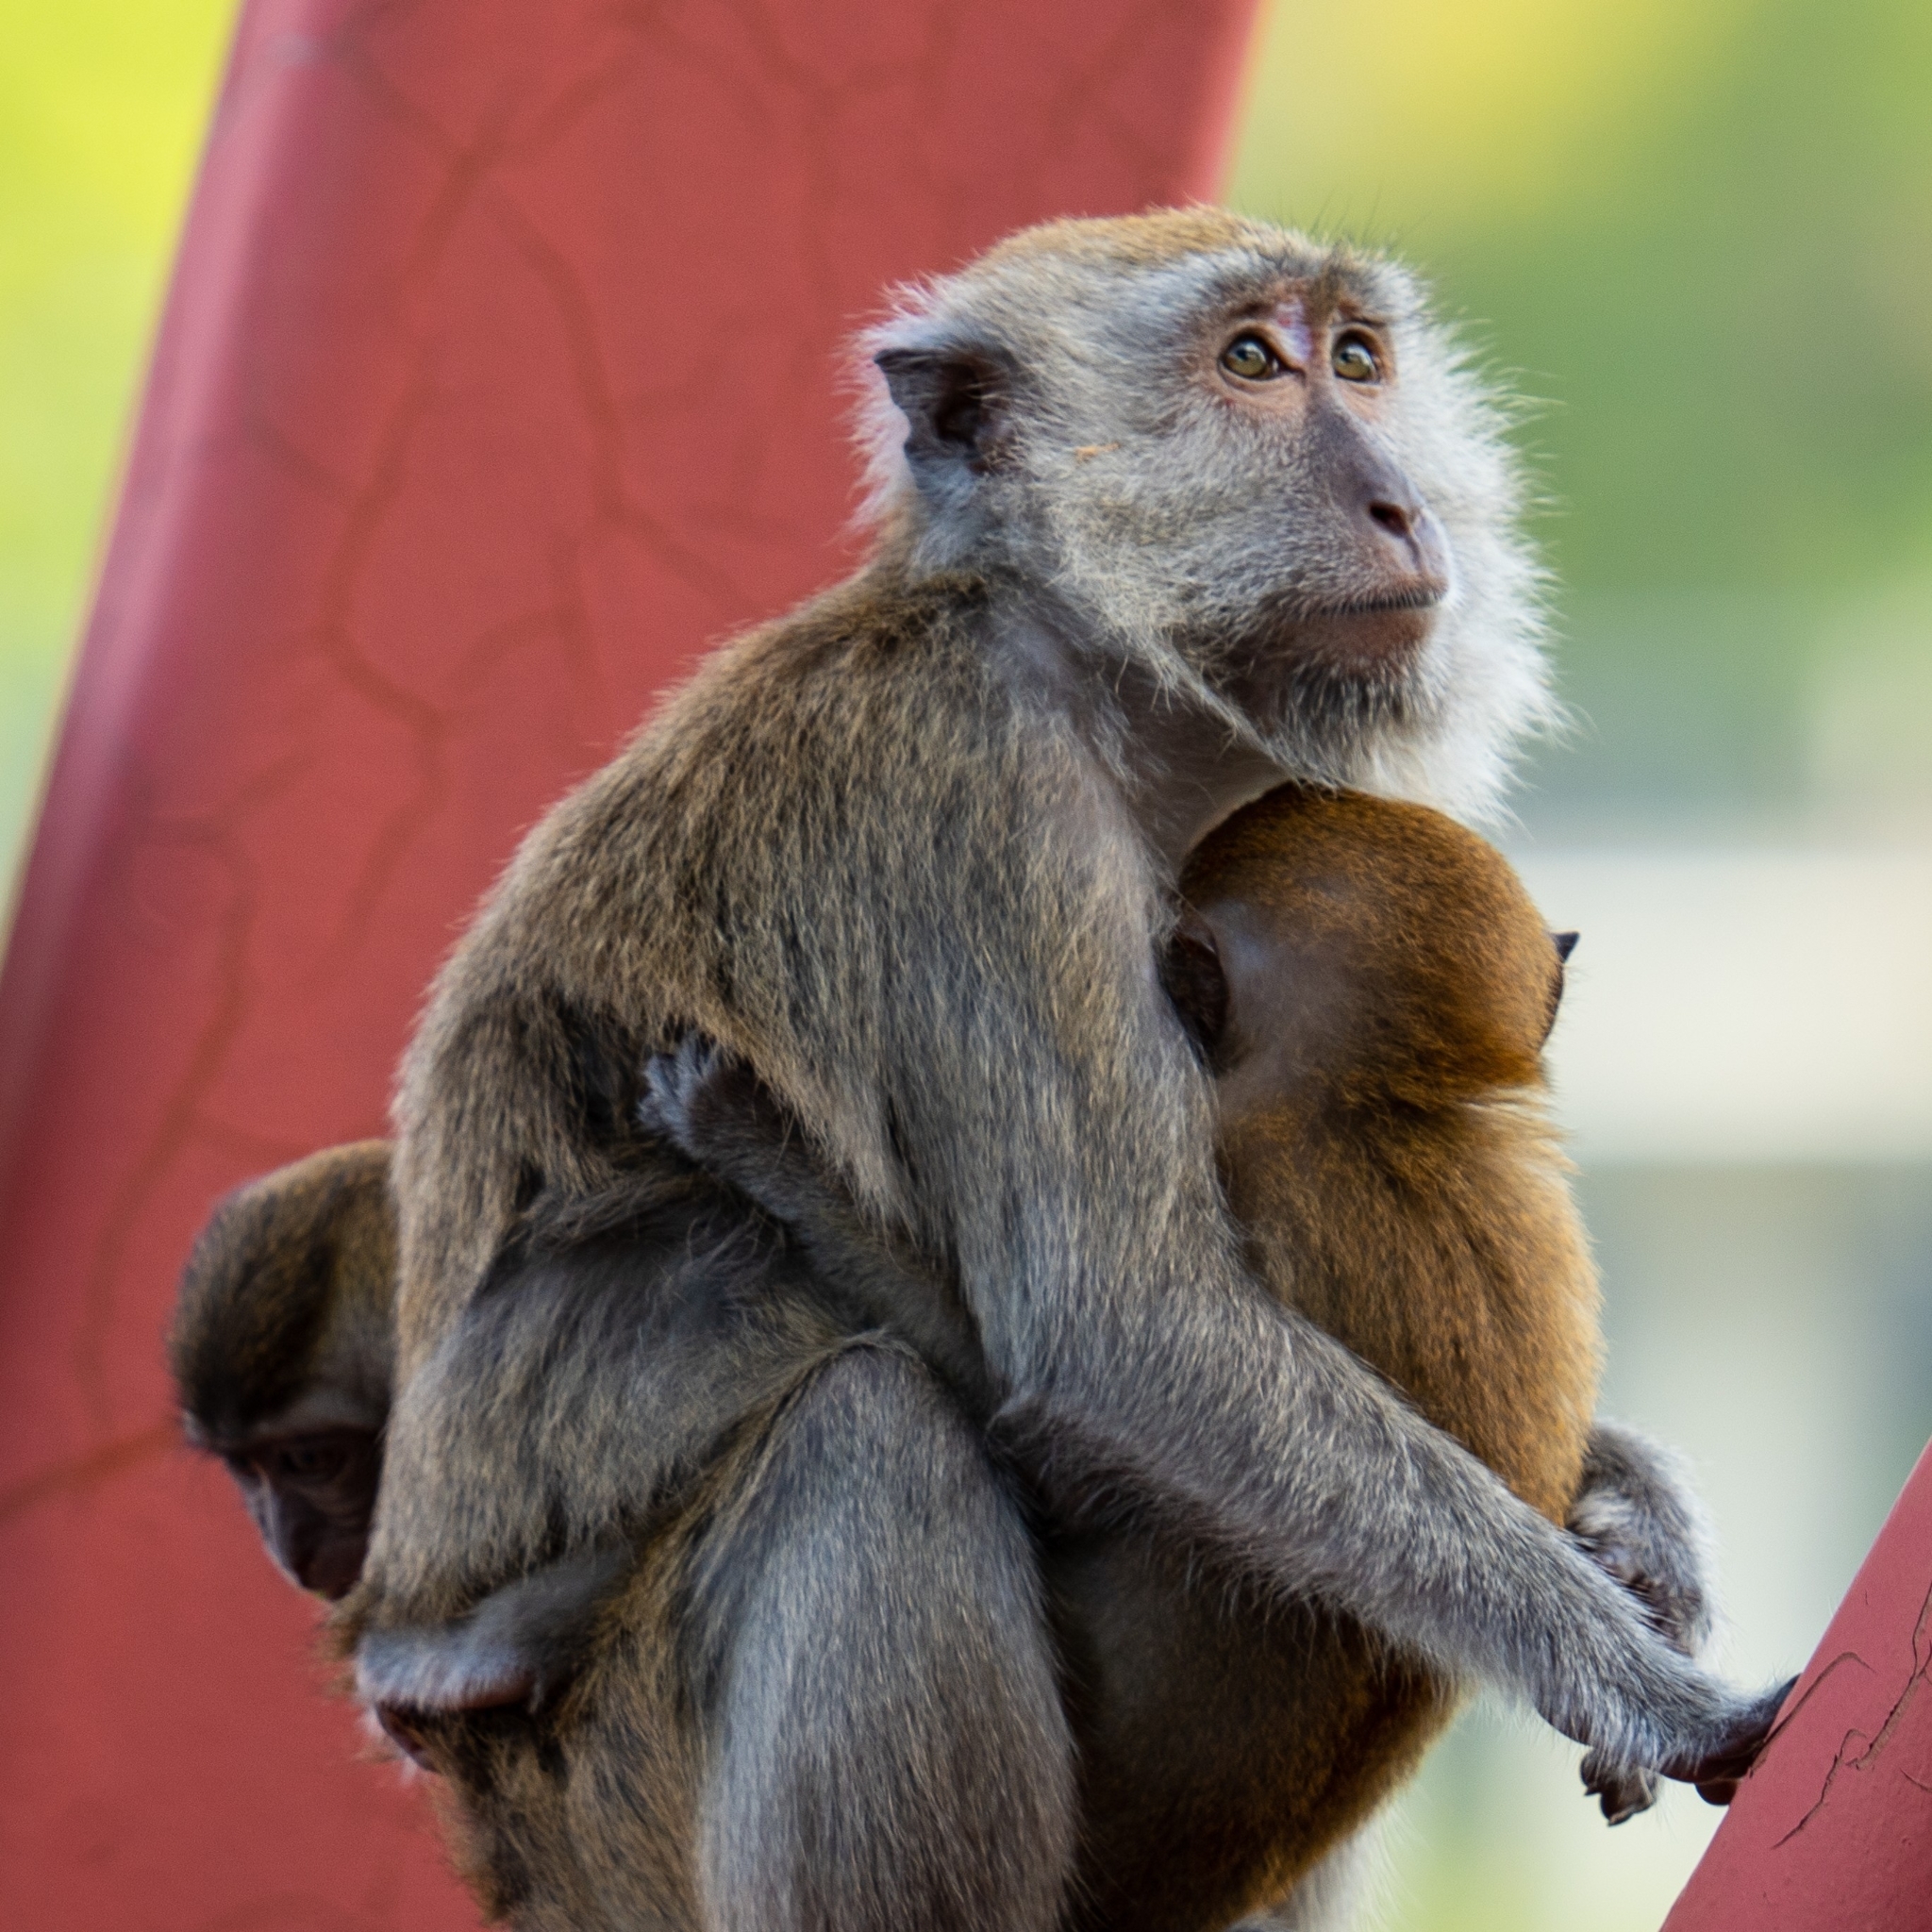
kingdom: Animalia
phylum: Chordata
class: Mammalia
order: Primates
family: Cercopithecidae
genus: Macaca
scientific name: Macaca fascicularis
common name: Crab-eating macaque
